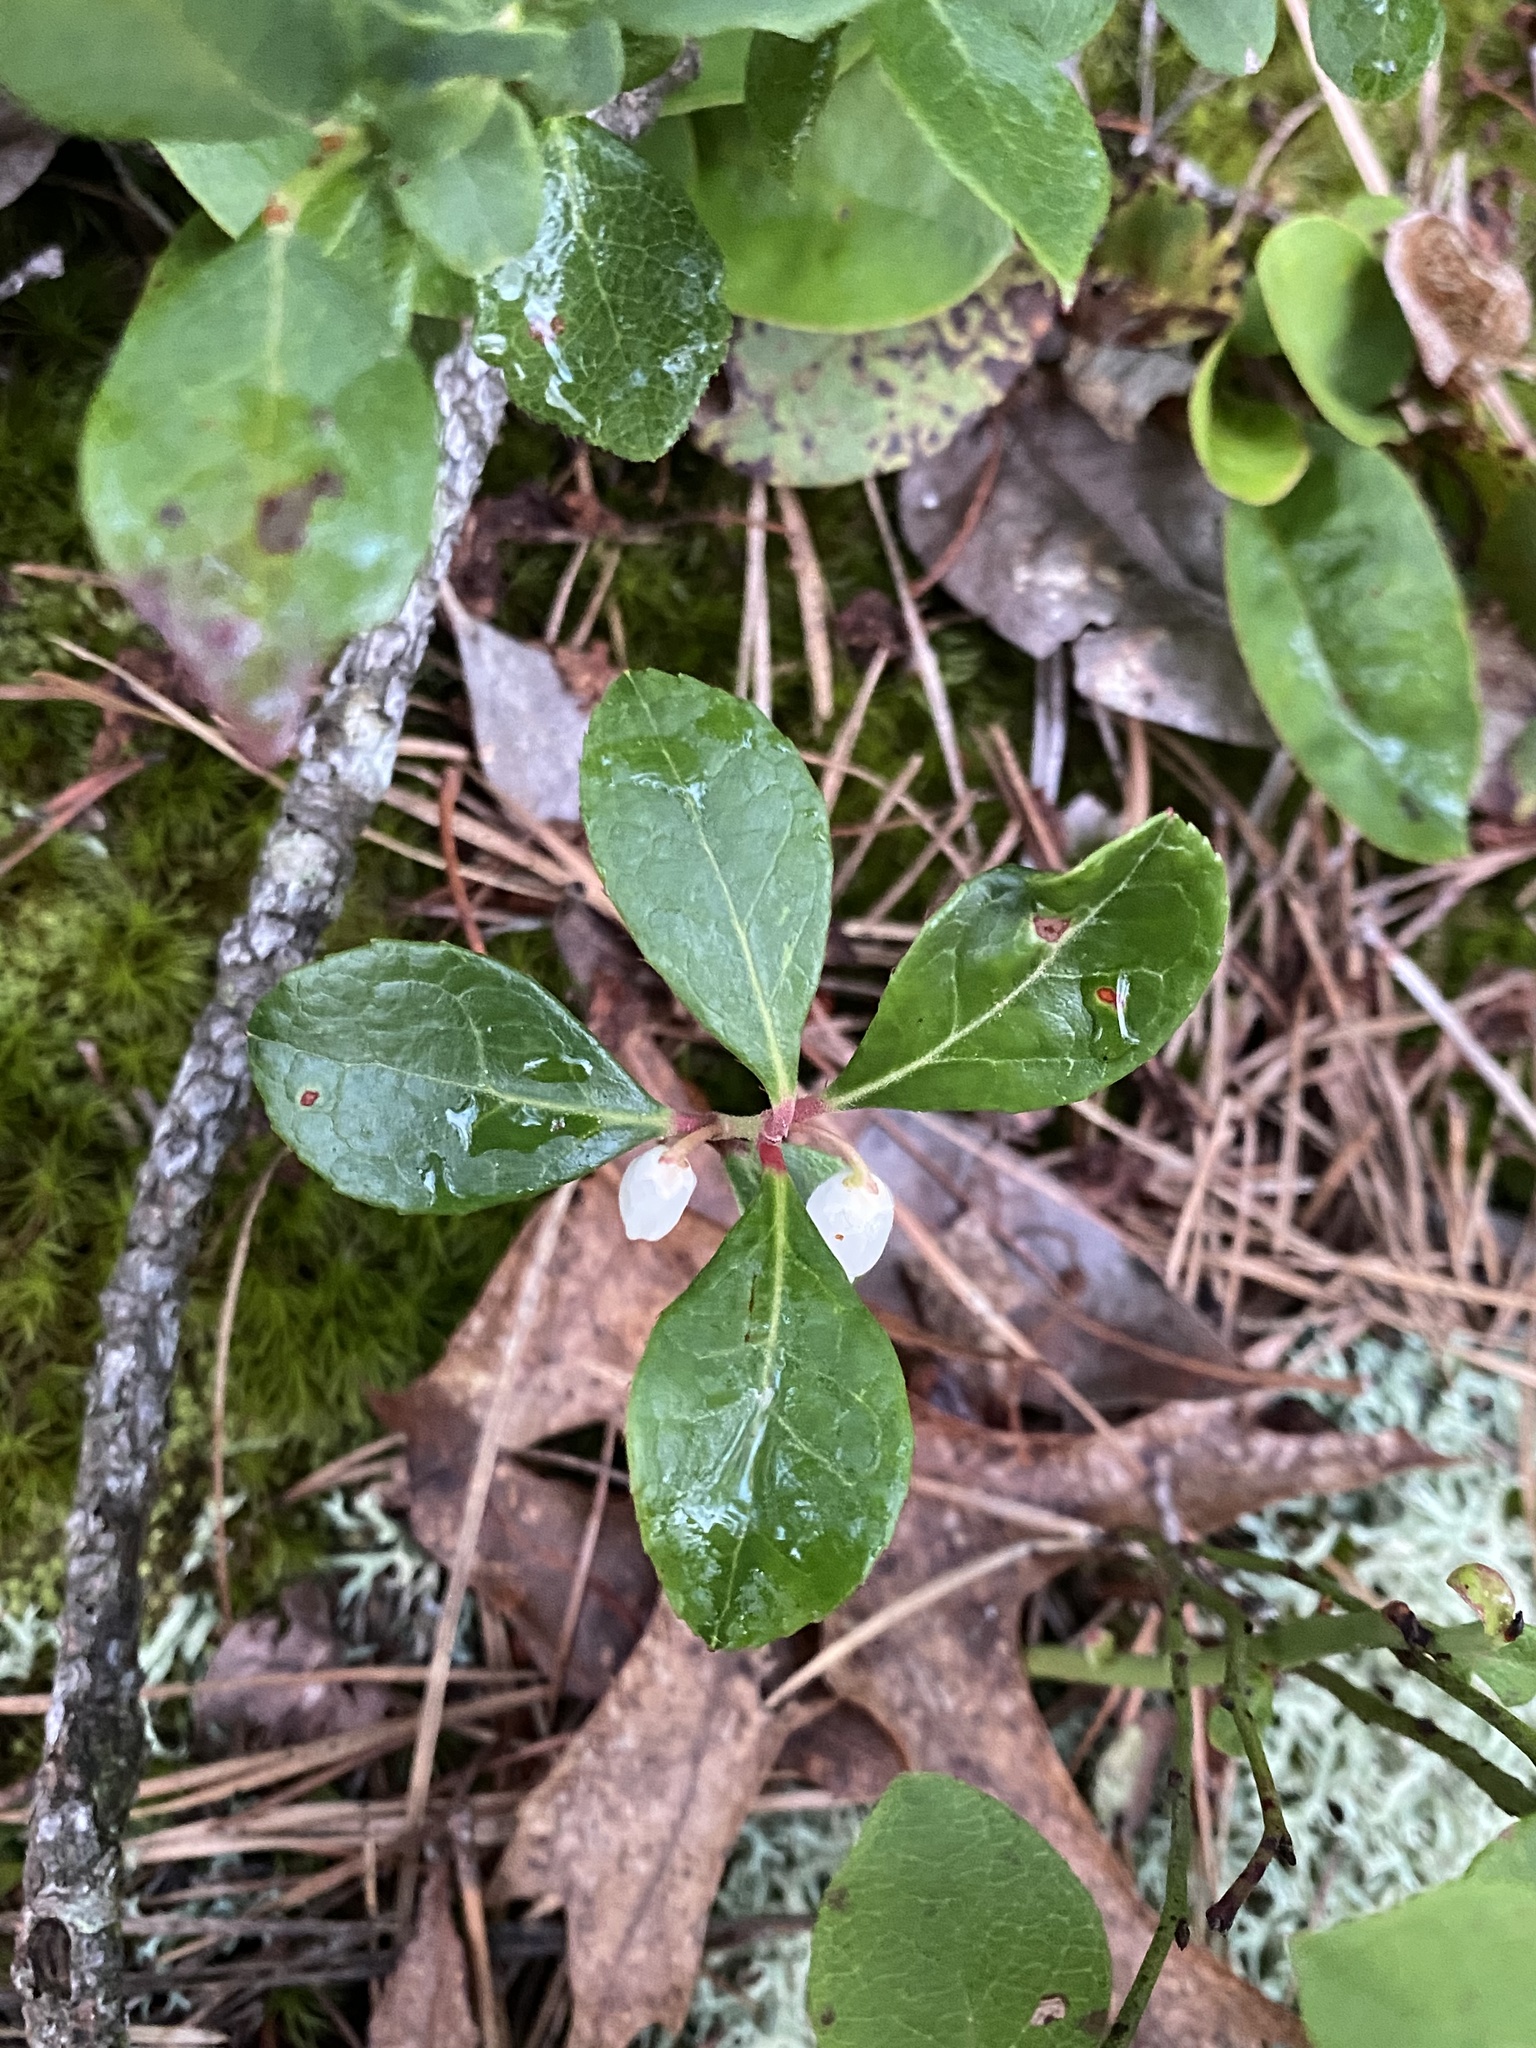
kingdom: Plantae
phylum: Tracheophyta
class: Magnoliopsida
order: Ericales
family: Ericaceae
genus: Gaultheria
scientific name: Gaultheria procumbens
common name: Checkerberry
